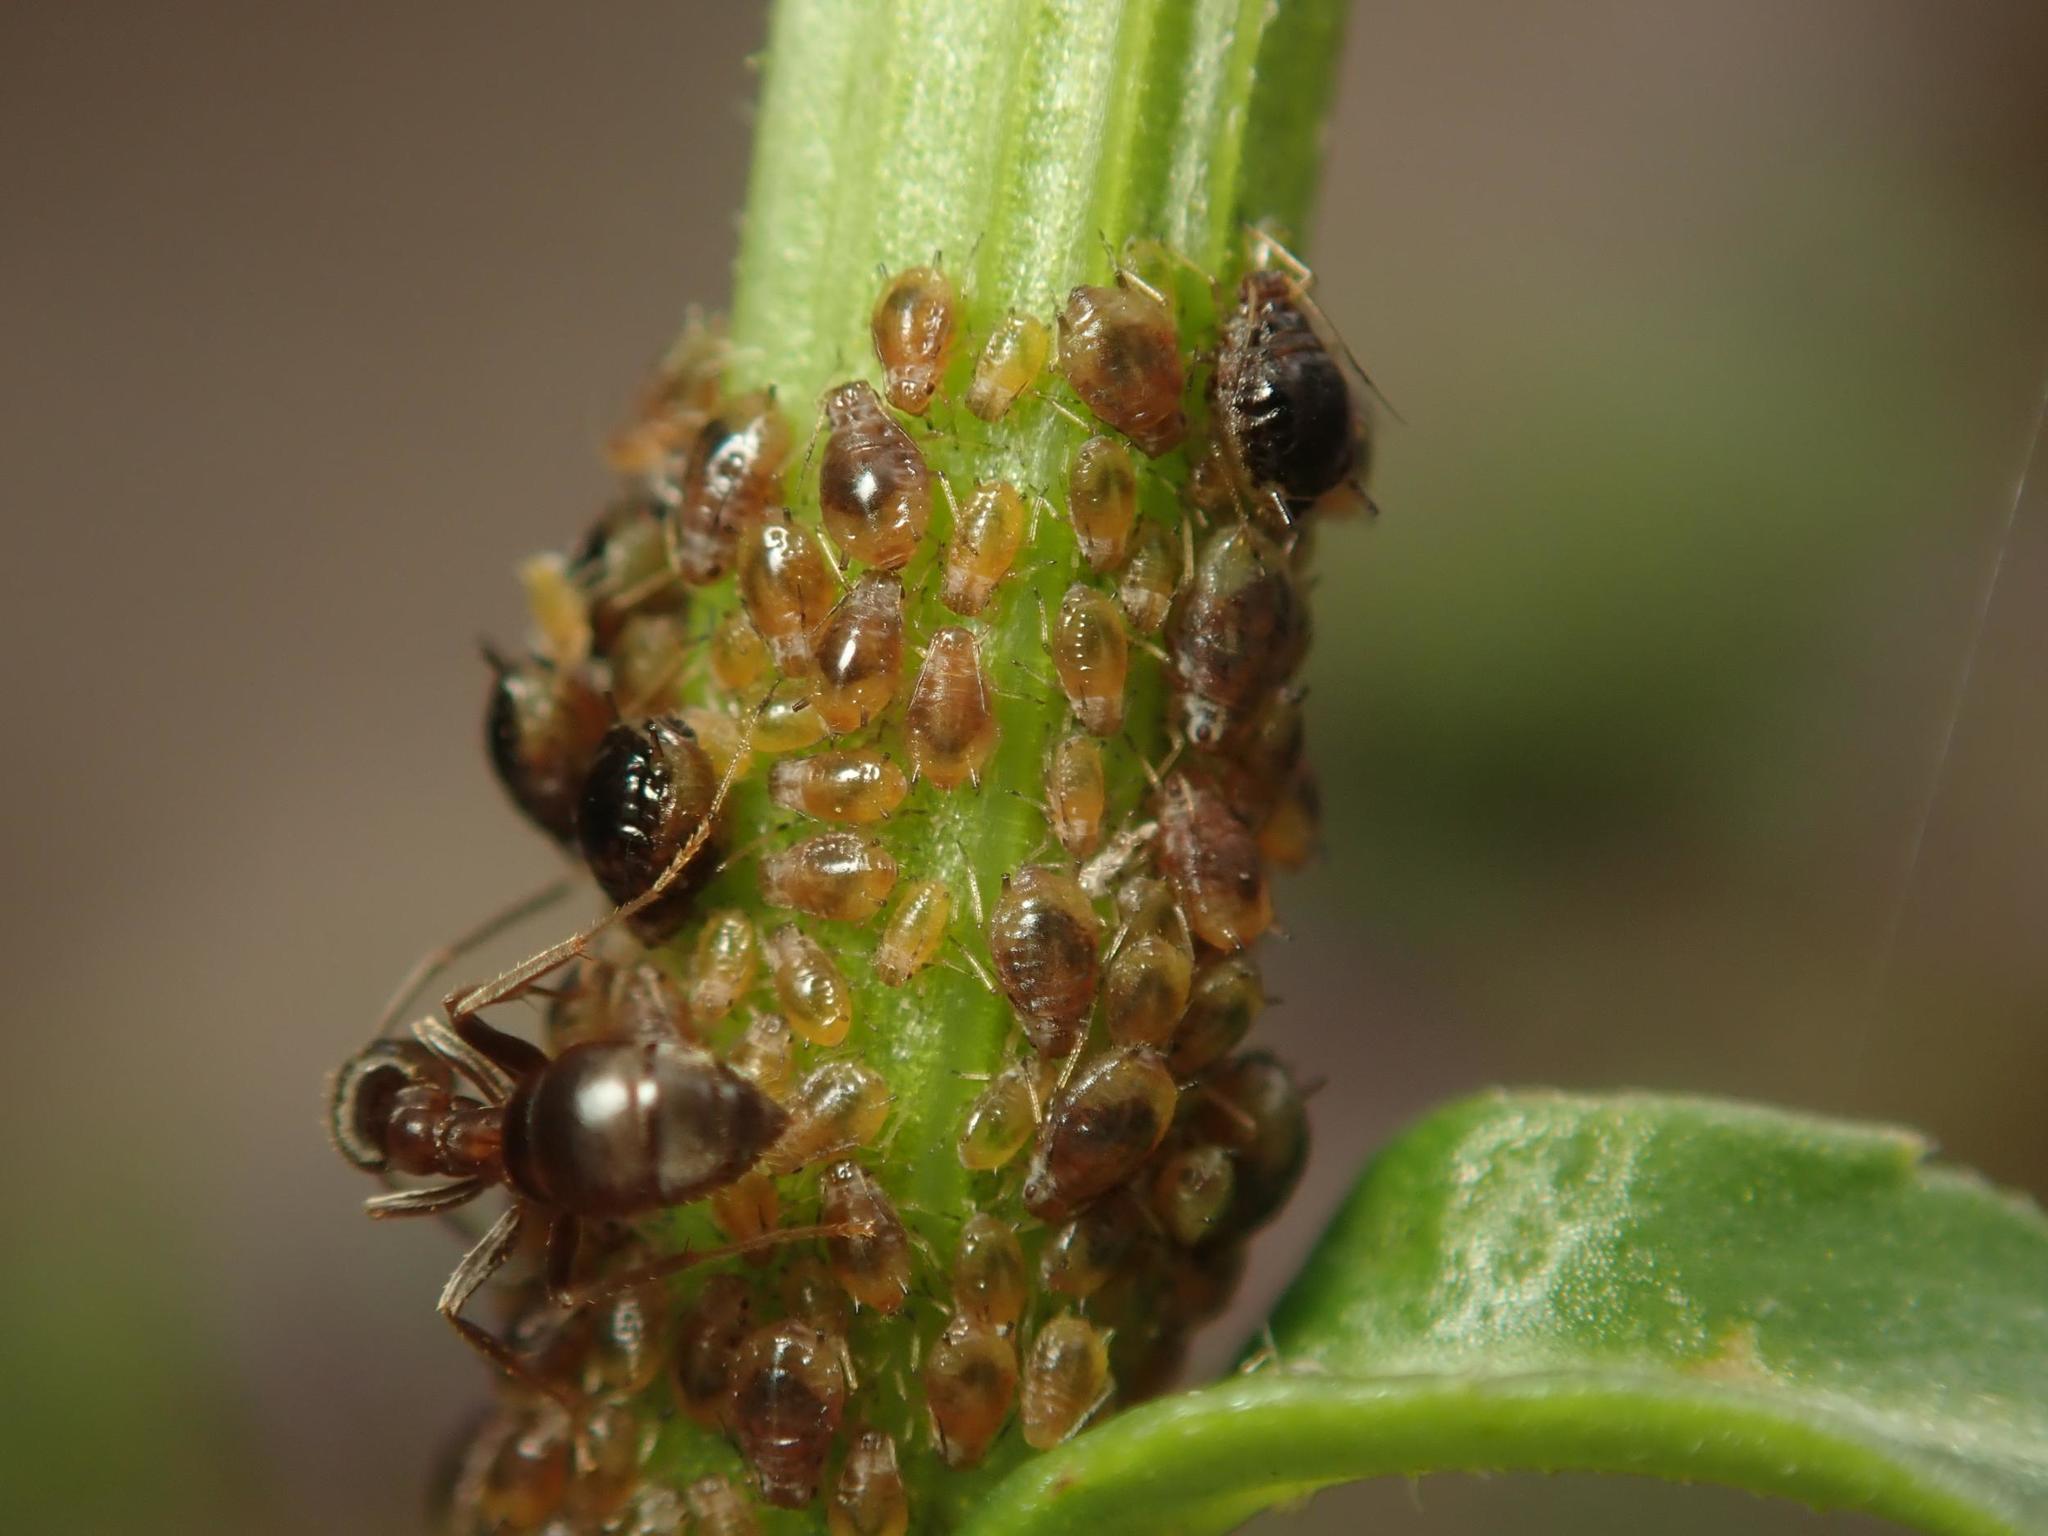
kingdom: Animalia
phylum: Arthropoda
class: Insecta
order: Hemiptera
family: Aphididae
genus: Brachycaudus
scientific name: Brachycaudus cardui
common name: Thistle aphid
